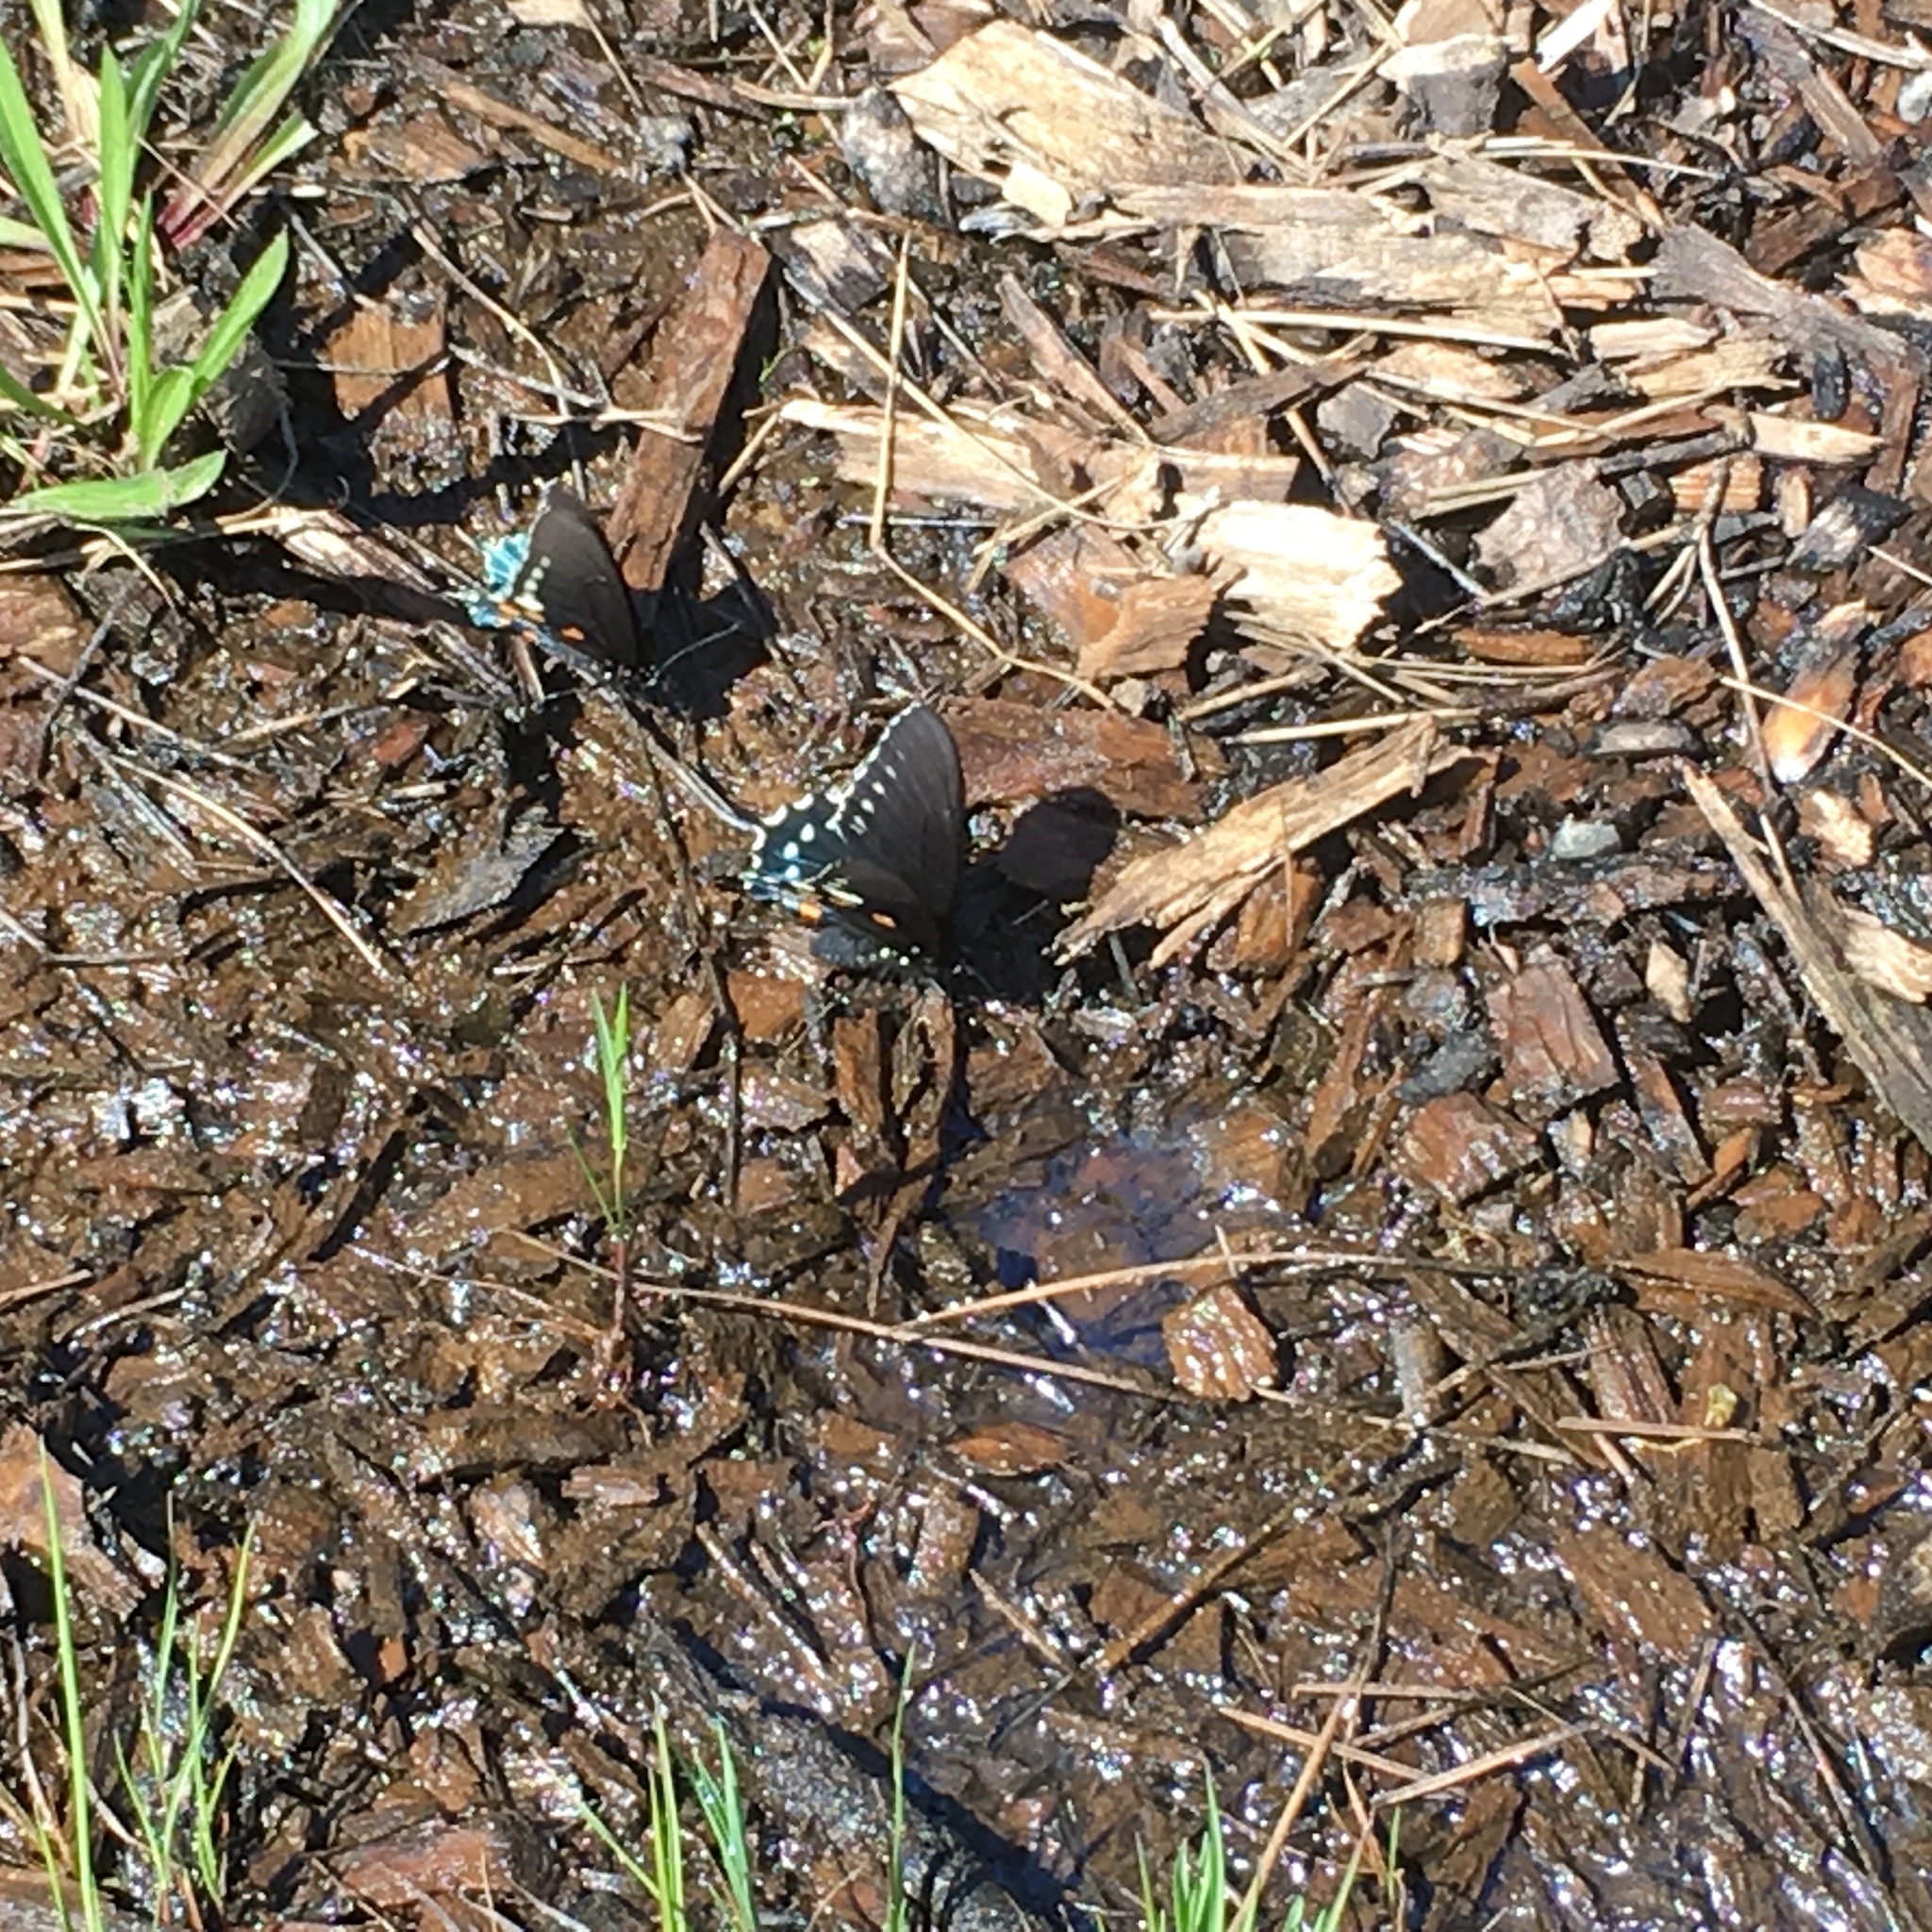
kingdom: Animalia
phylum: Arthropoda
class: Insecta
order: Lepidoptera
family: Papilionidae
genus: Battus
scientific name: Battus philenor
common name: Pipevine swallowtail
